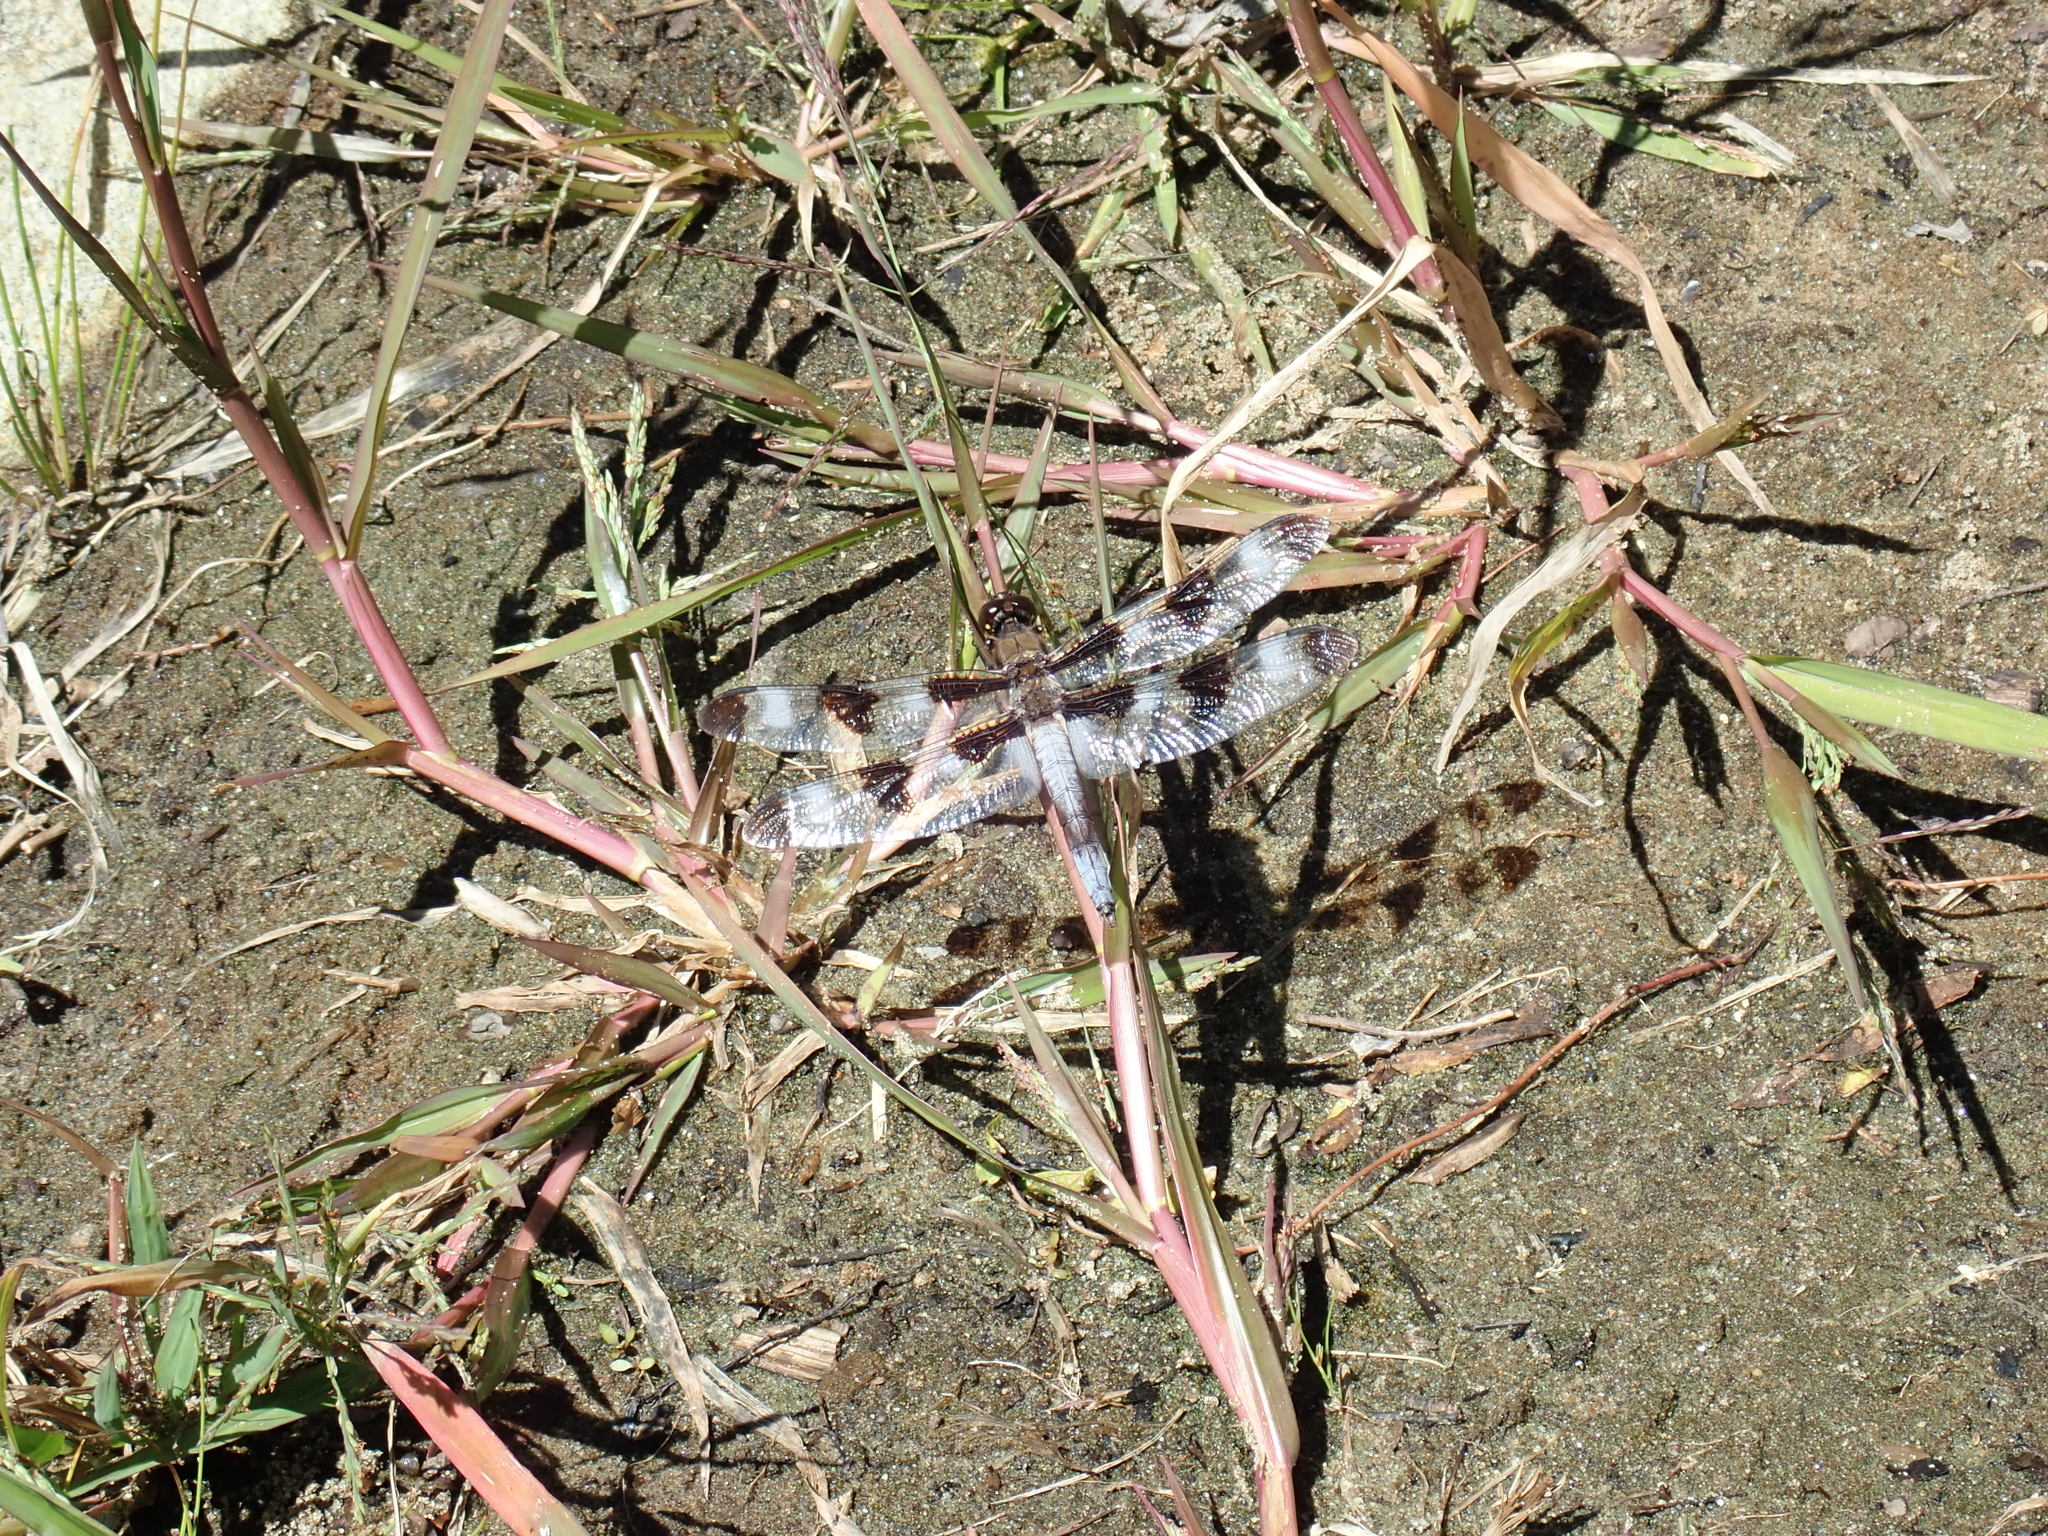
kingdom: Animalia
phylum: Arthropoda
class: Insecta
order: Odonata
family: Libellulidae
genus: Libellula
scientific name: Libellula pulchella
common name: Twelve-spotted skimmer
